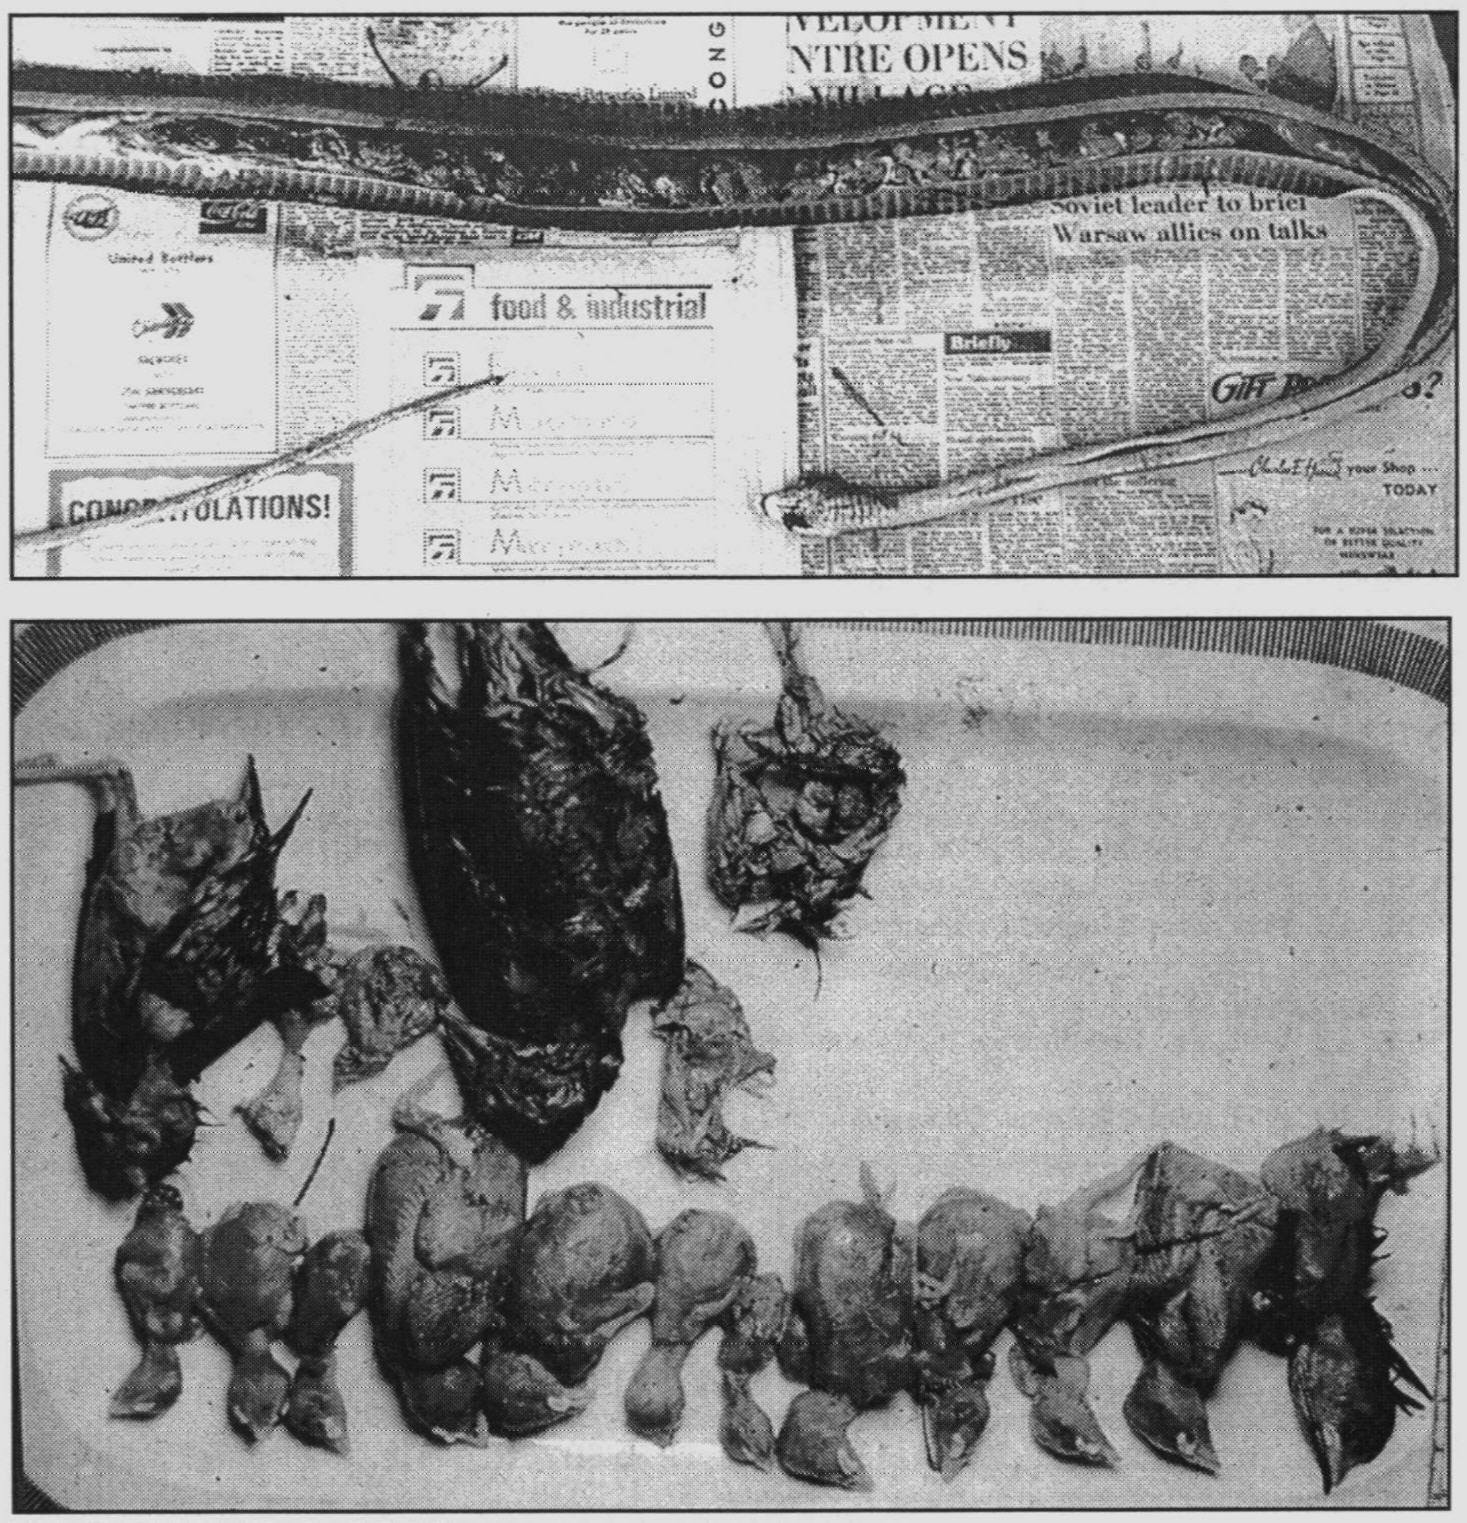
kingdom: Animalia
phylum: Chordata
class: Squamata
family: Elapidae
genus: Dendroaspis
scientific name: Dendroaspis polylepis
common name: Black mamba
